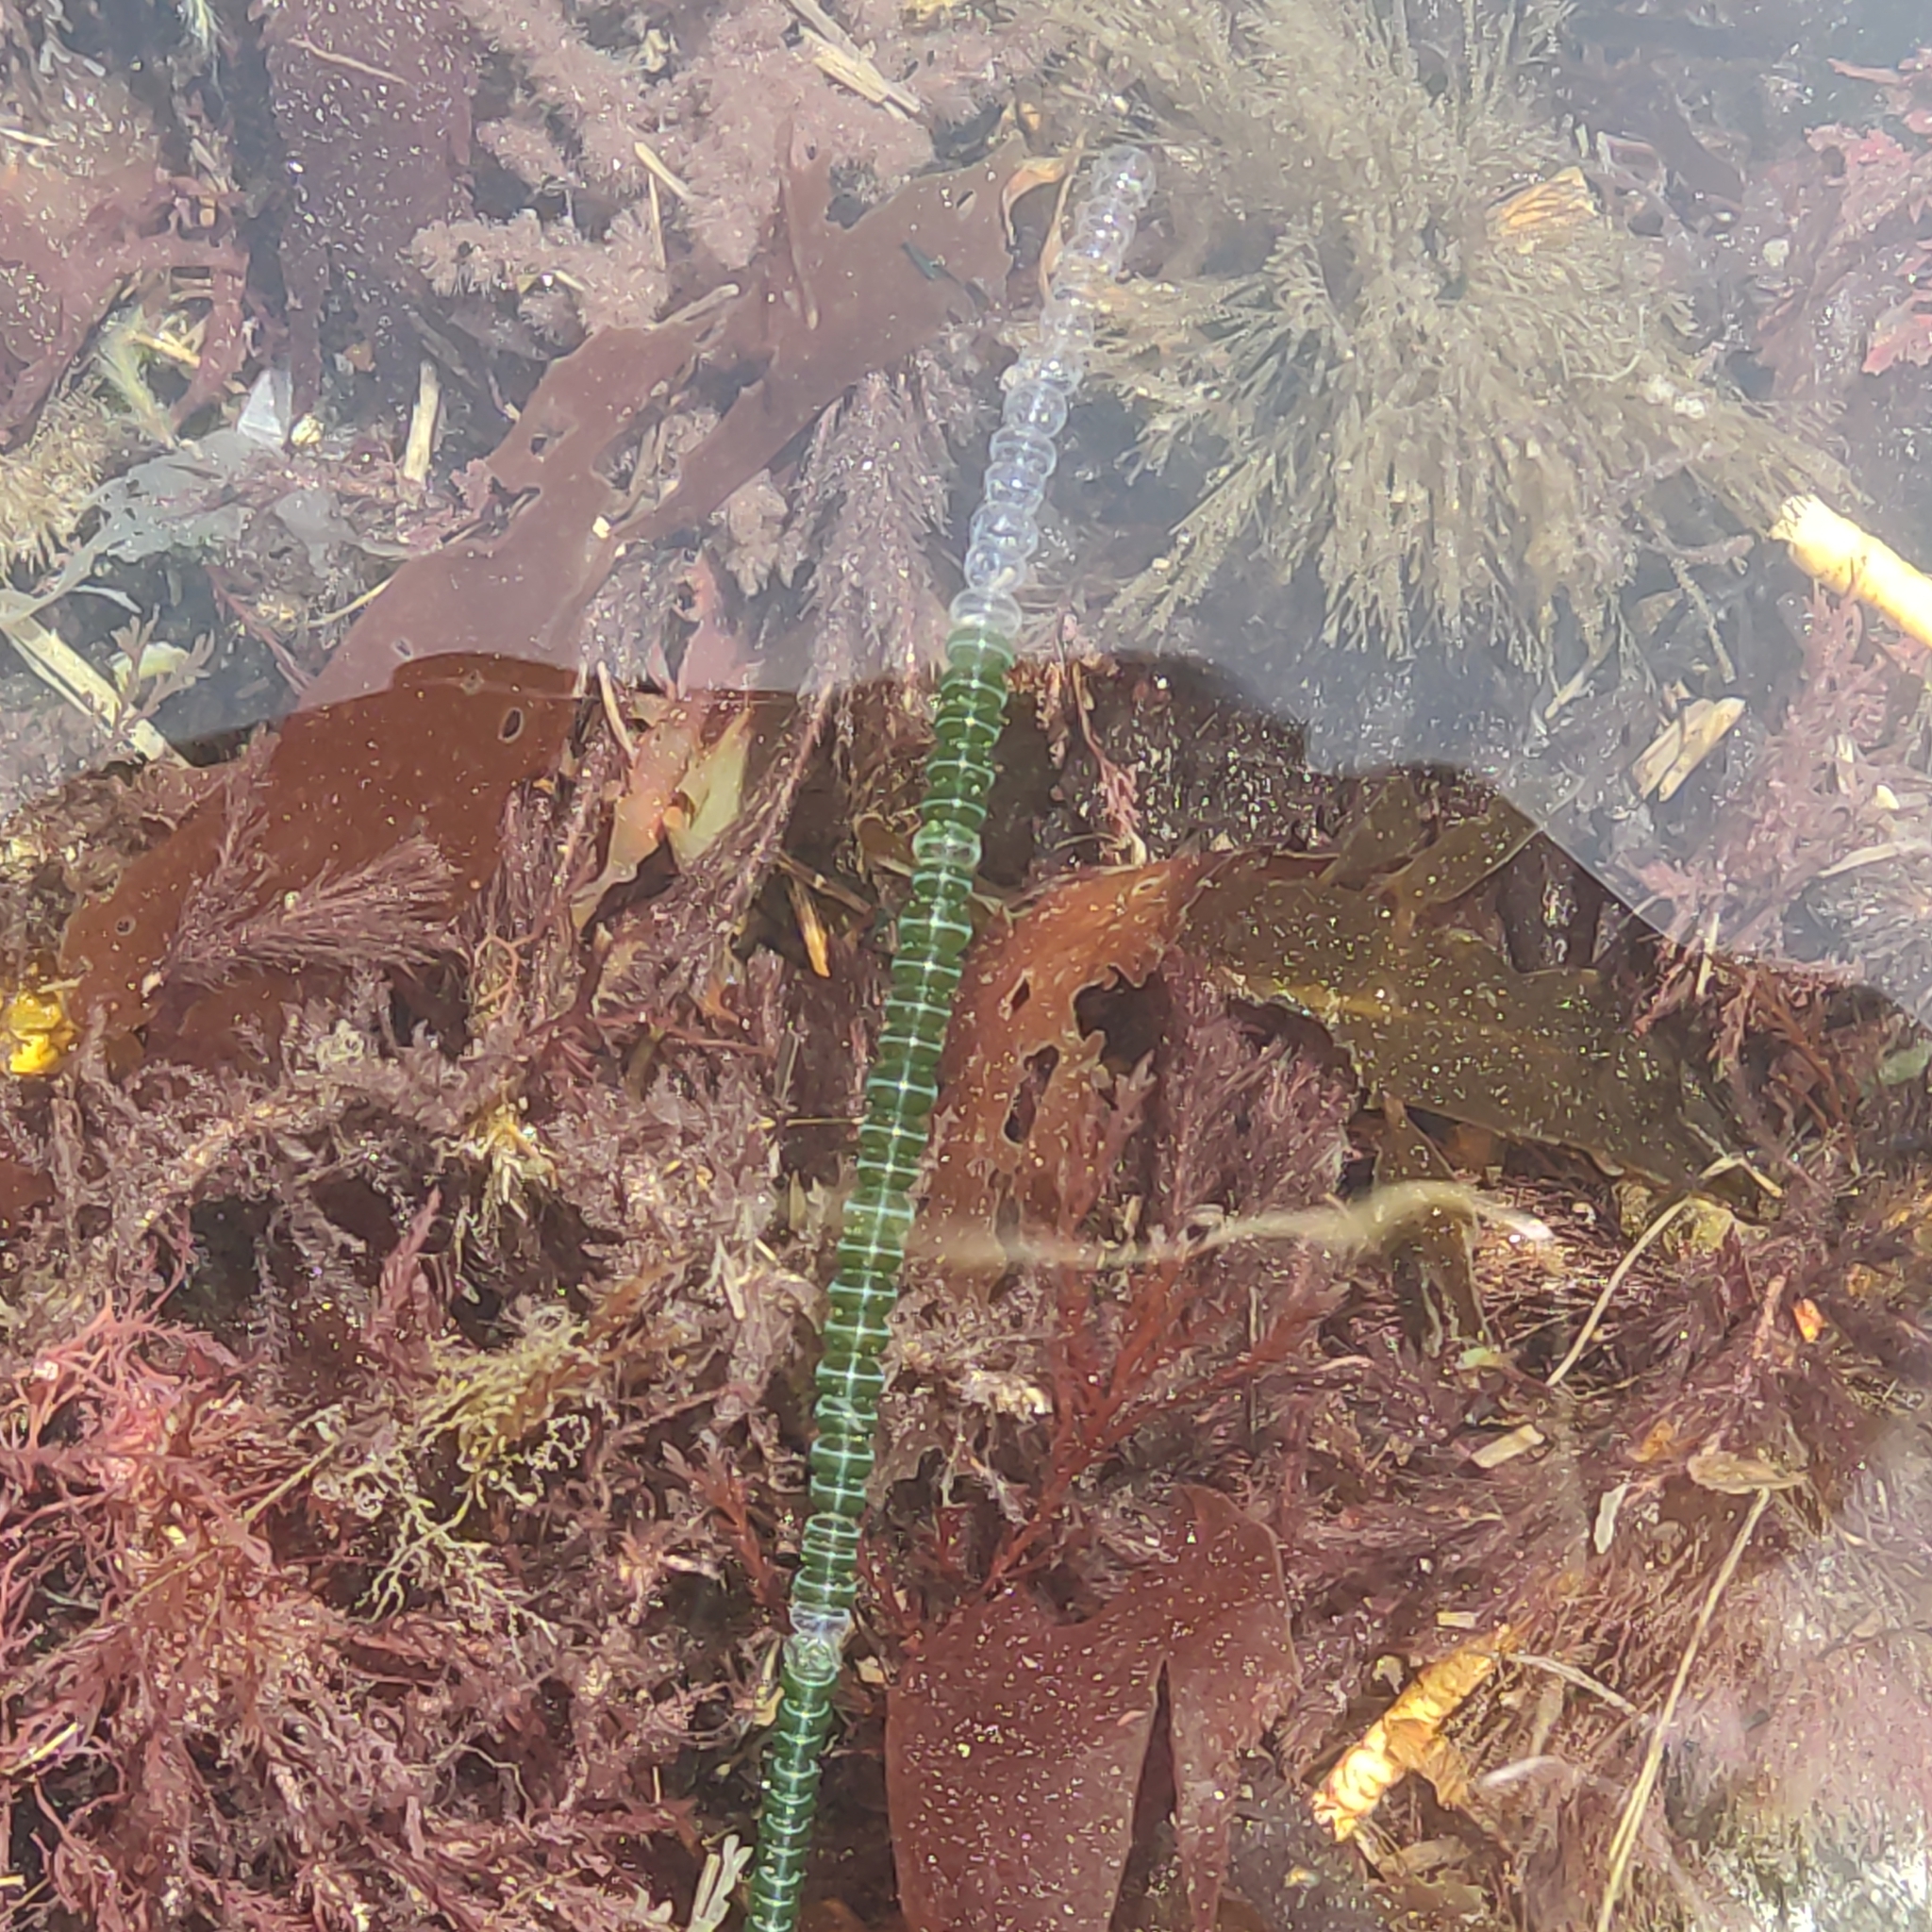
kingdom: Plantae
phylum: Chlorophyta
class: Ulvophyceae
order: Cladophorales
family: Cladophoraceae
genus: Chaetomorpha
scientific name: Chaetomorpha coliformis
